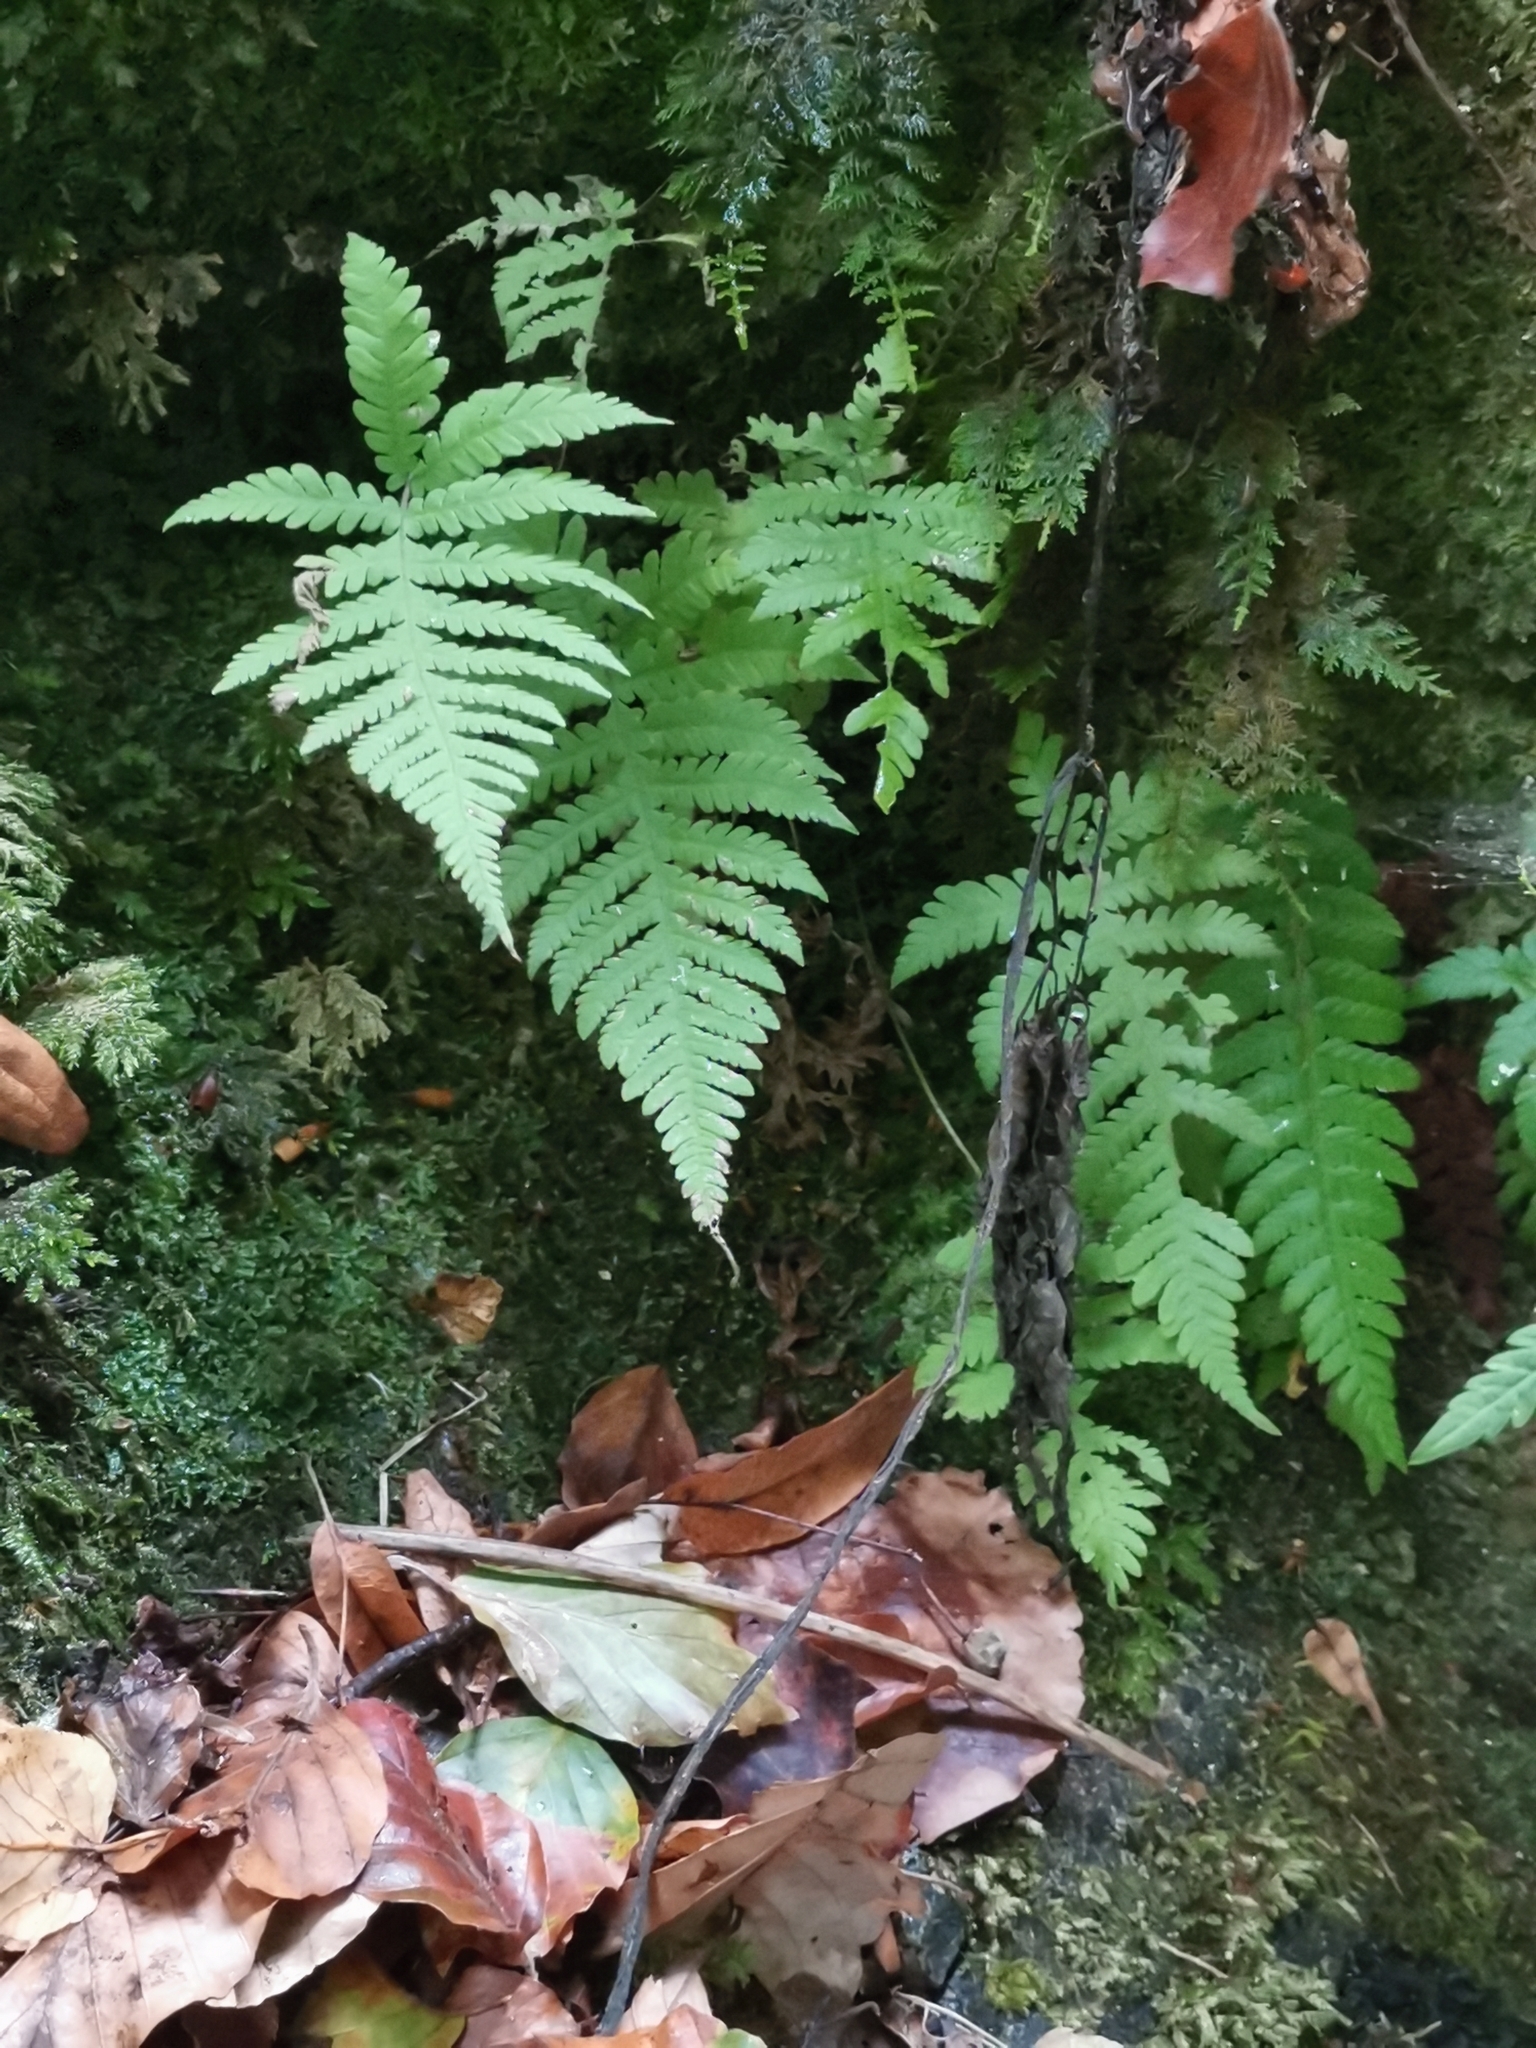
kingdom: Plantae
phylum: Tracheophyta
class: Polypodiopsida
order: Polypodiales
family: Thelypteridaceae
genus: Phegopteris
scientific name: Phegopteris connectilis
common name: Beech fern
